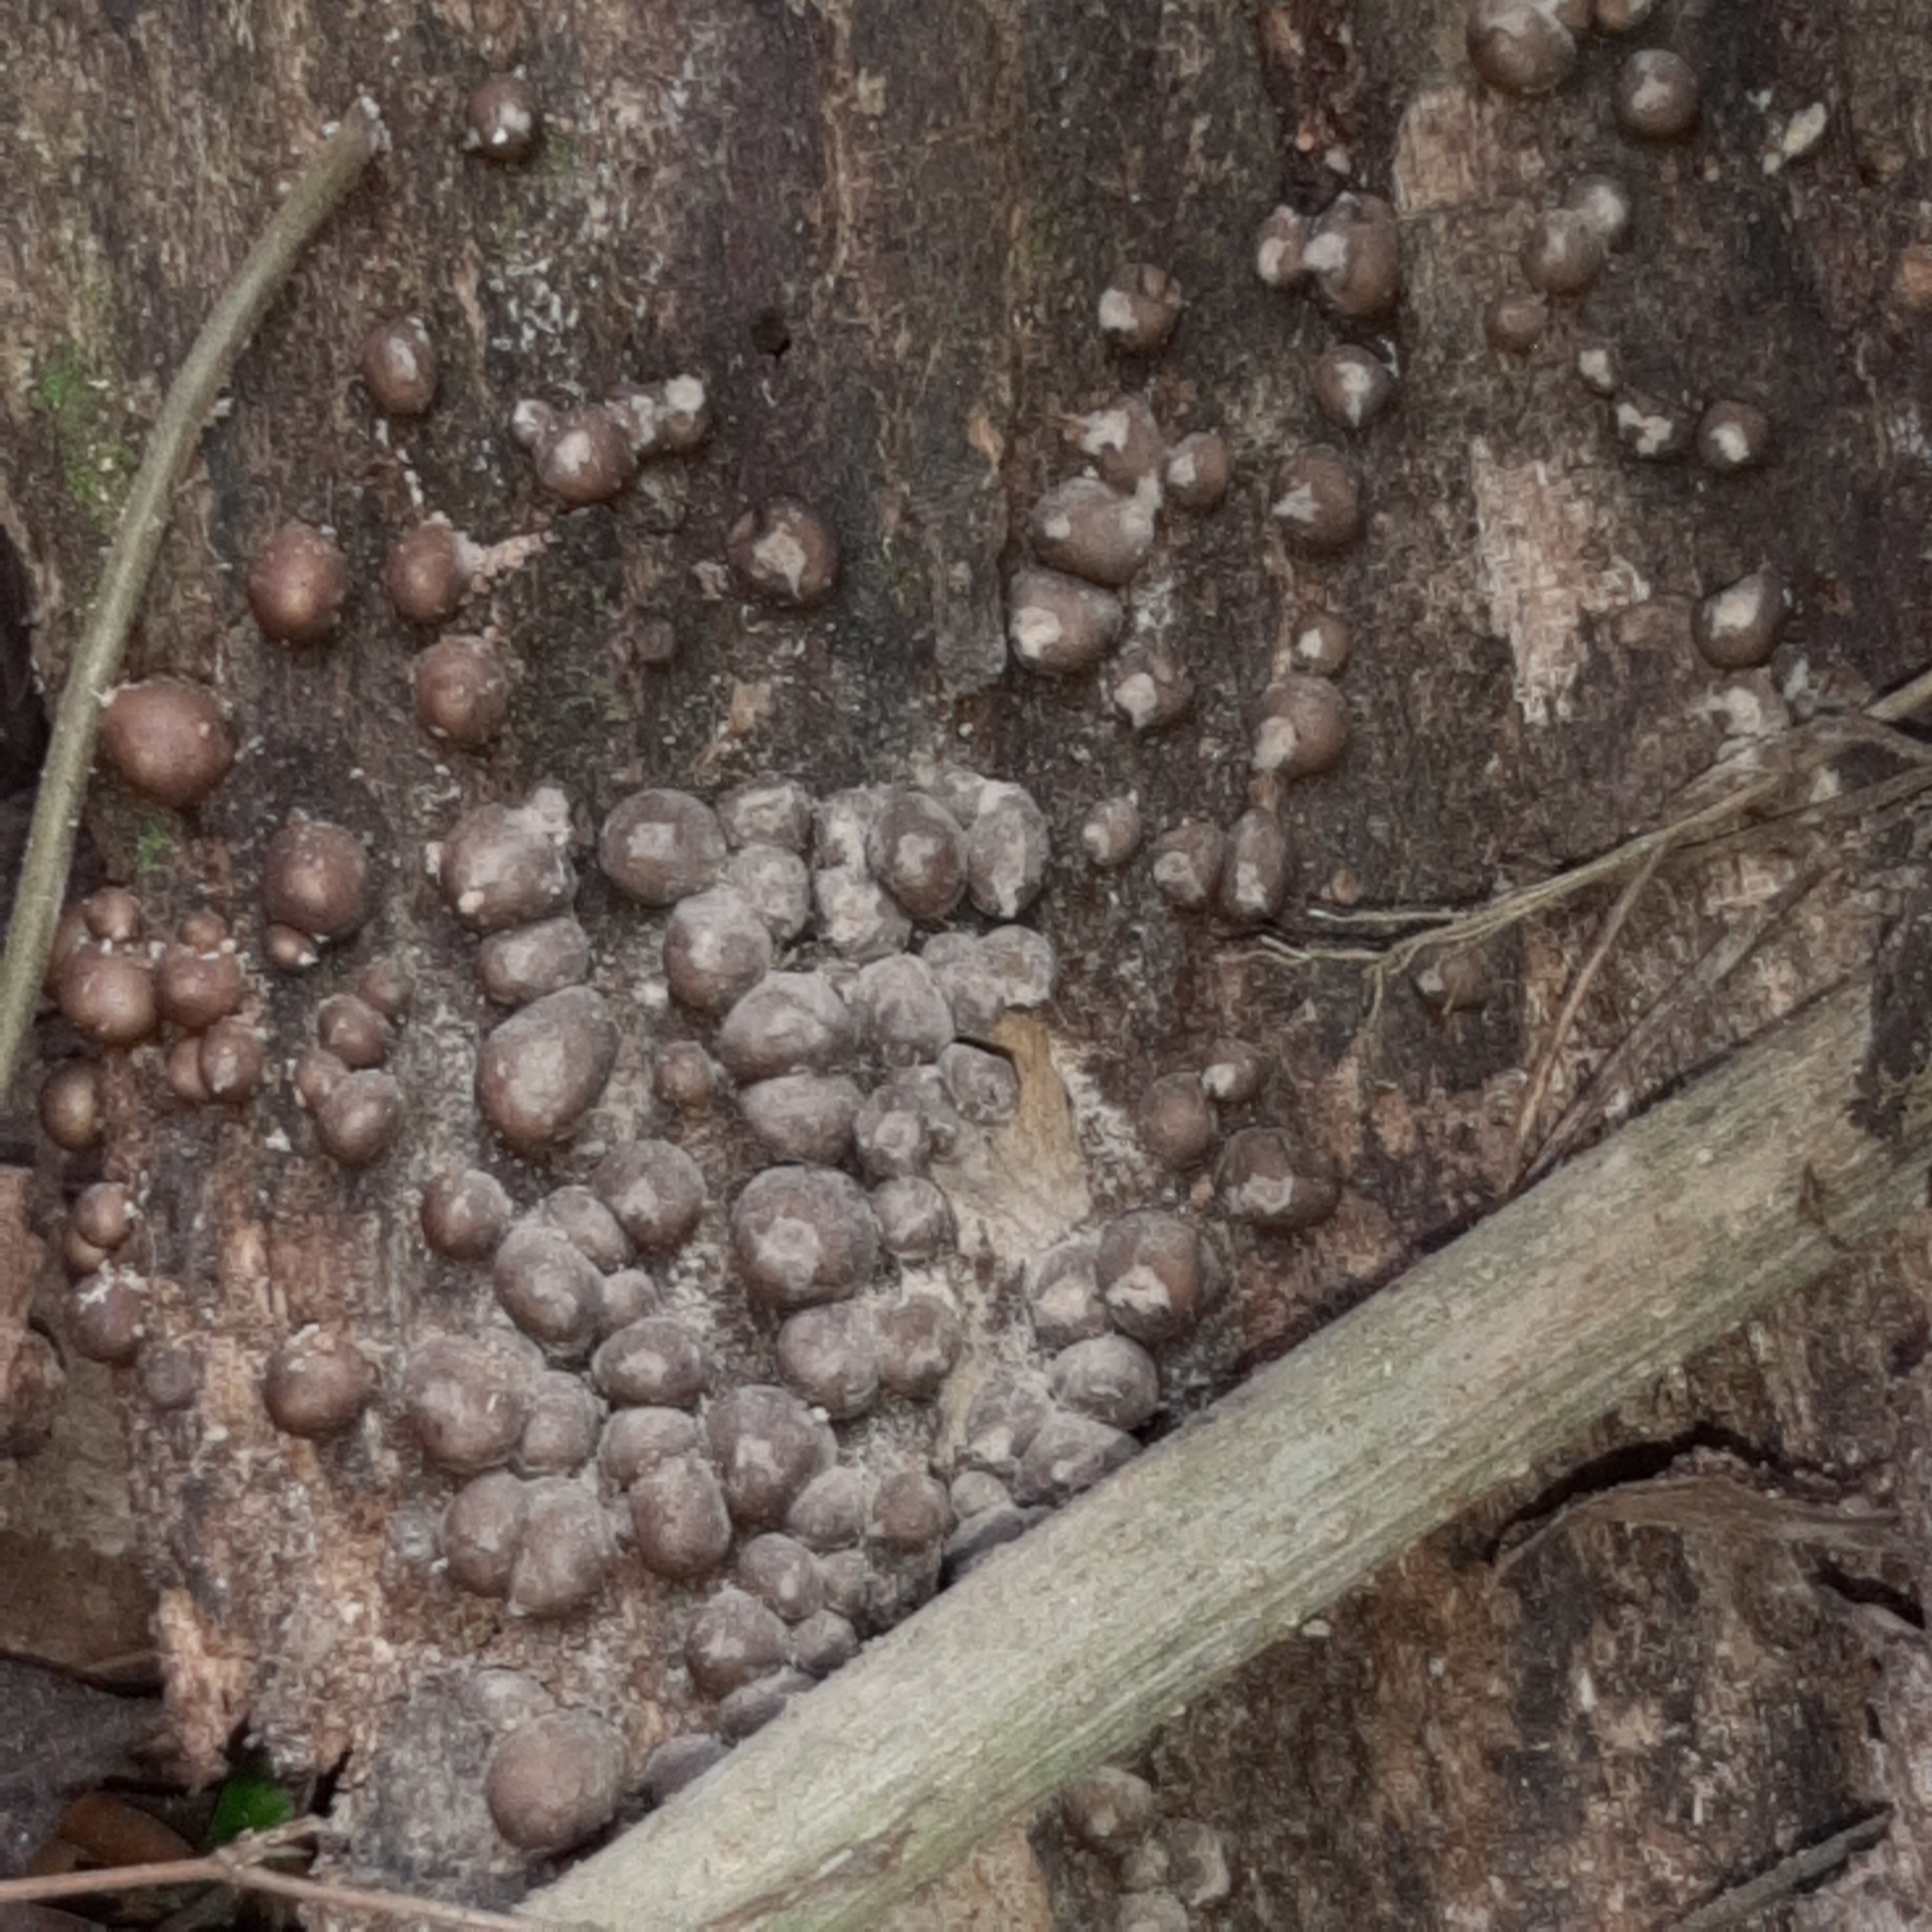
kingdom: Protozoa
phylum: Mycetozoa
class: Myxomycetes
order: Cribrariales
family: Tubiferaceae
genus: Lycogala
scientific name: Lycogala epidendrum
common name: Wolf's milk
